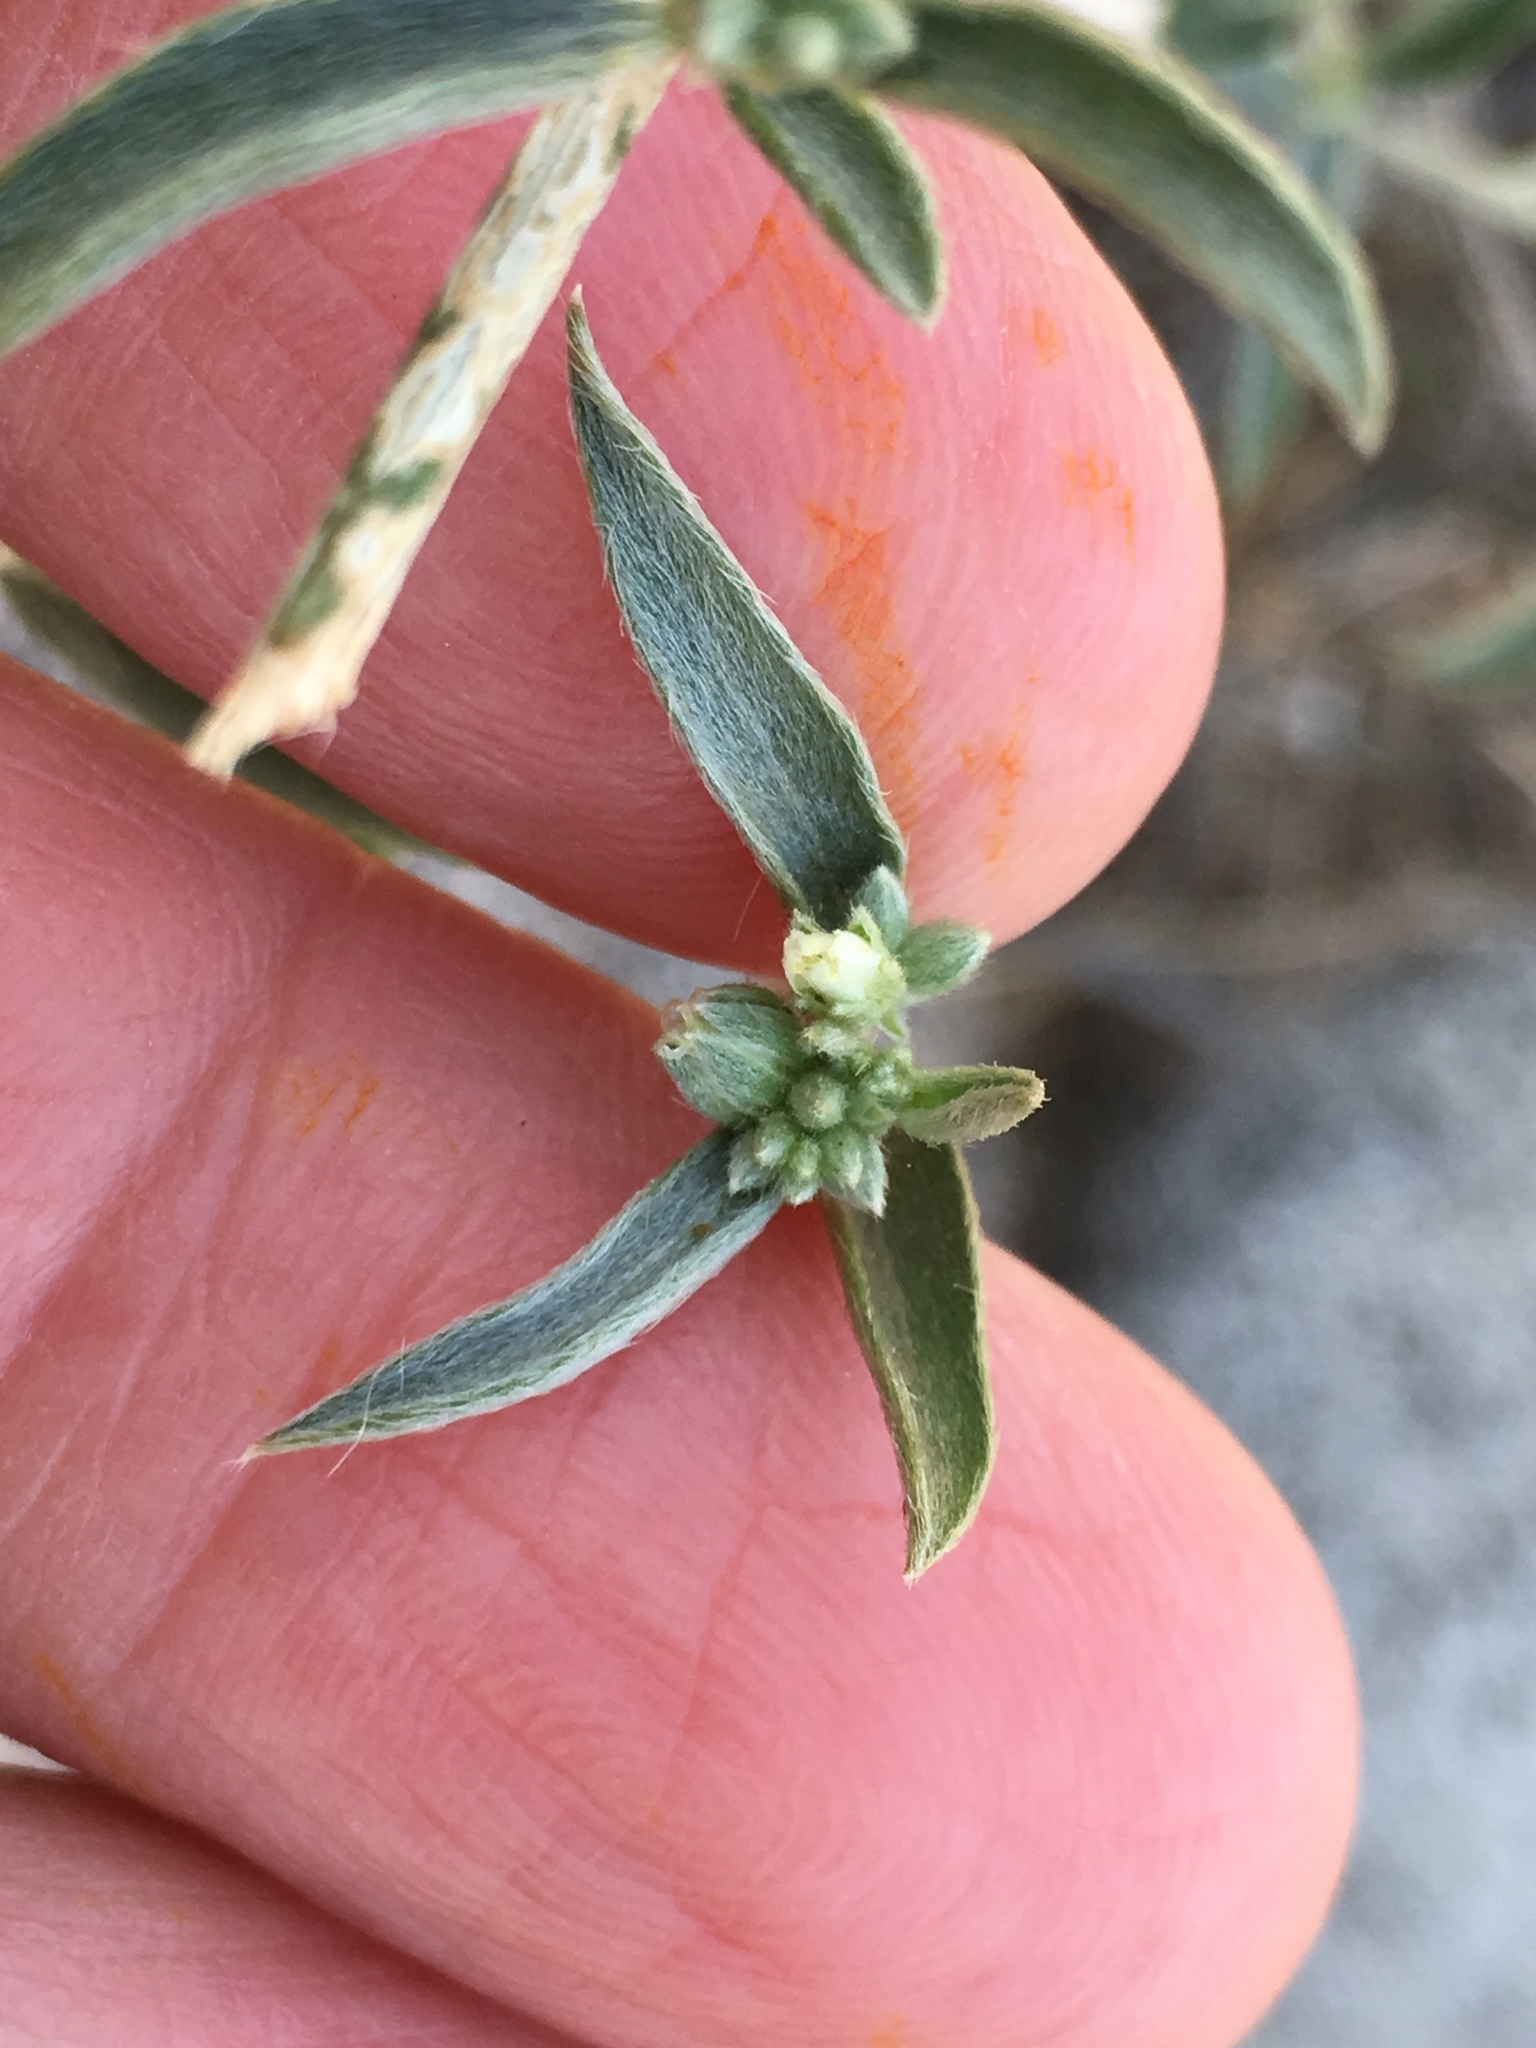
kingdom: Plantae
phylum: Tracheophyta
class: Magnoliopsida
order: Malpighiales
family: Euphorbiaceae
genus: Ditaxis
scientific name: Ditaxis lanceolata
